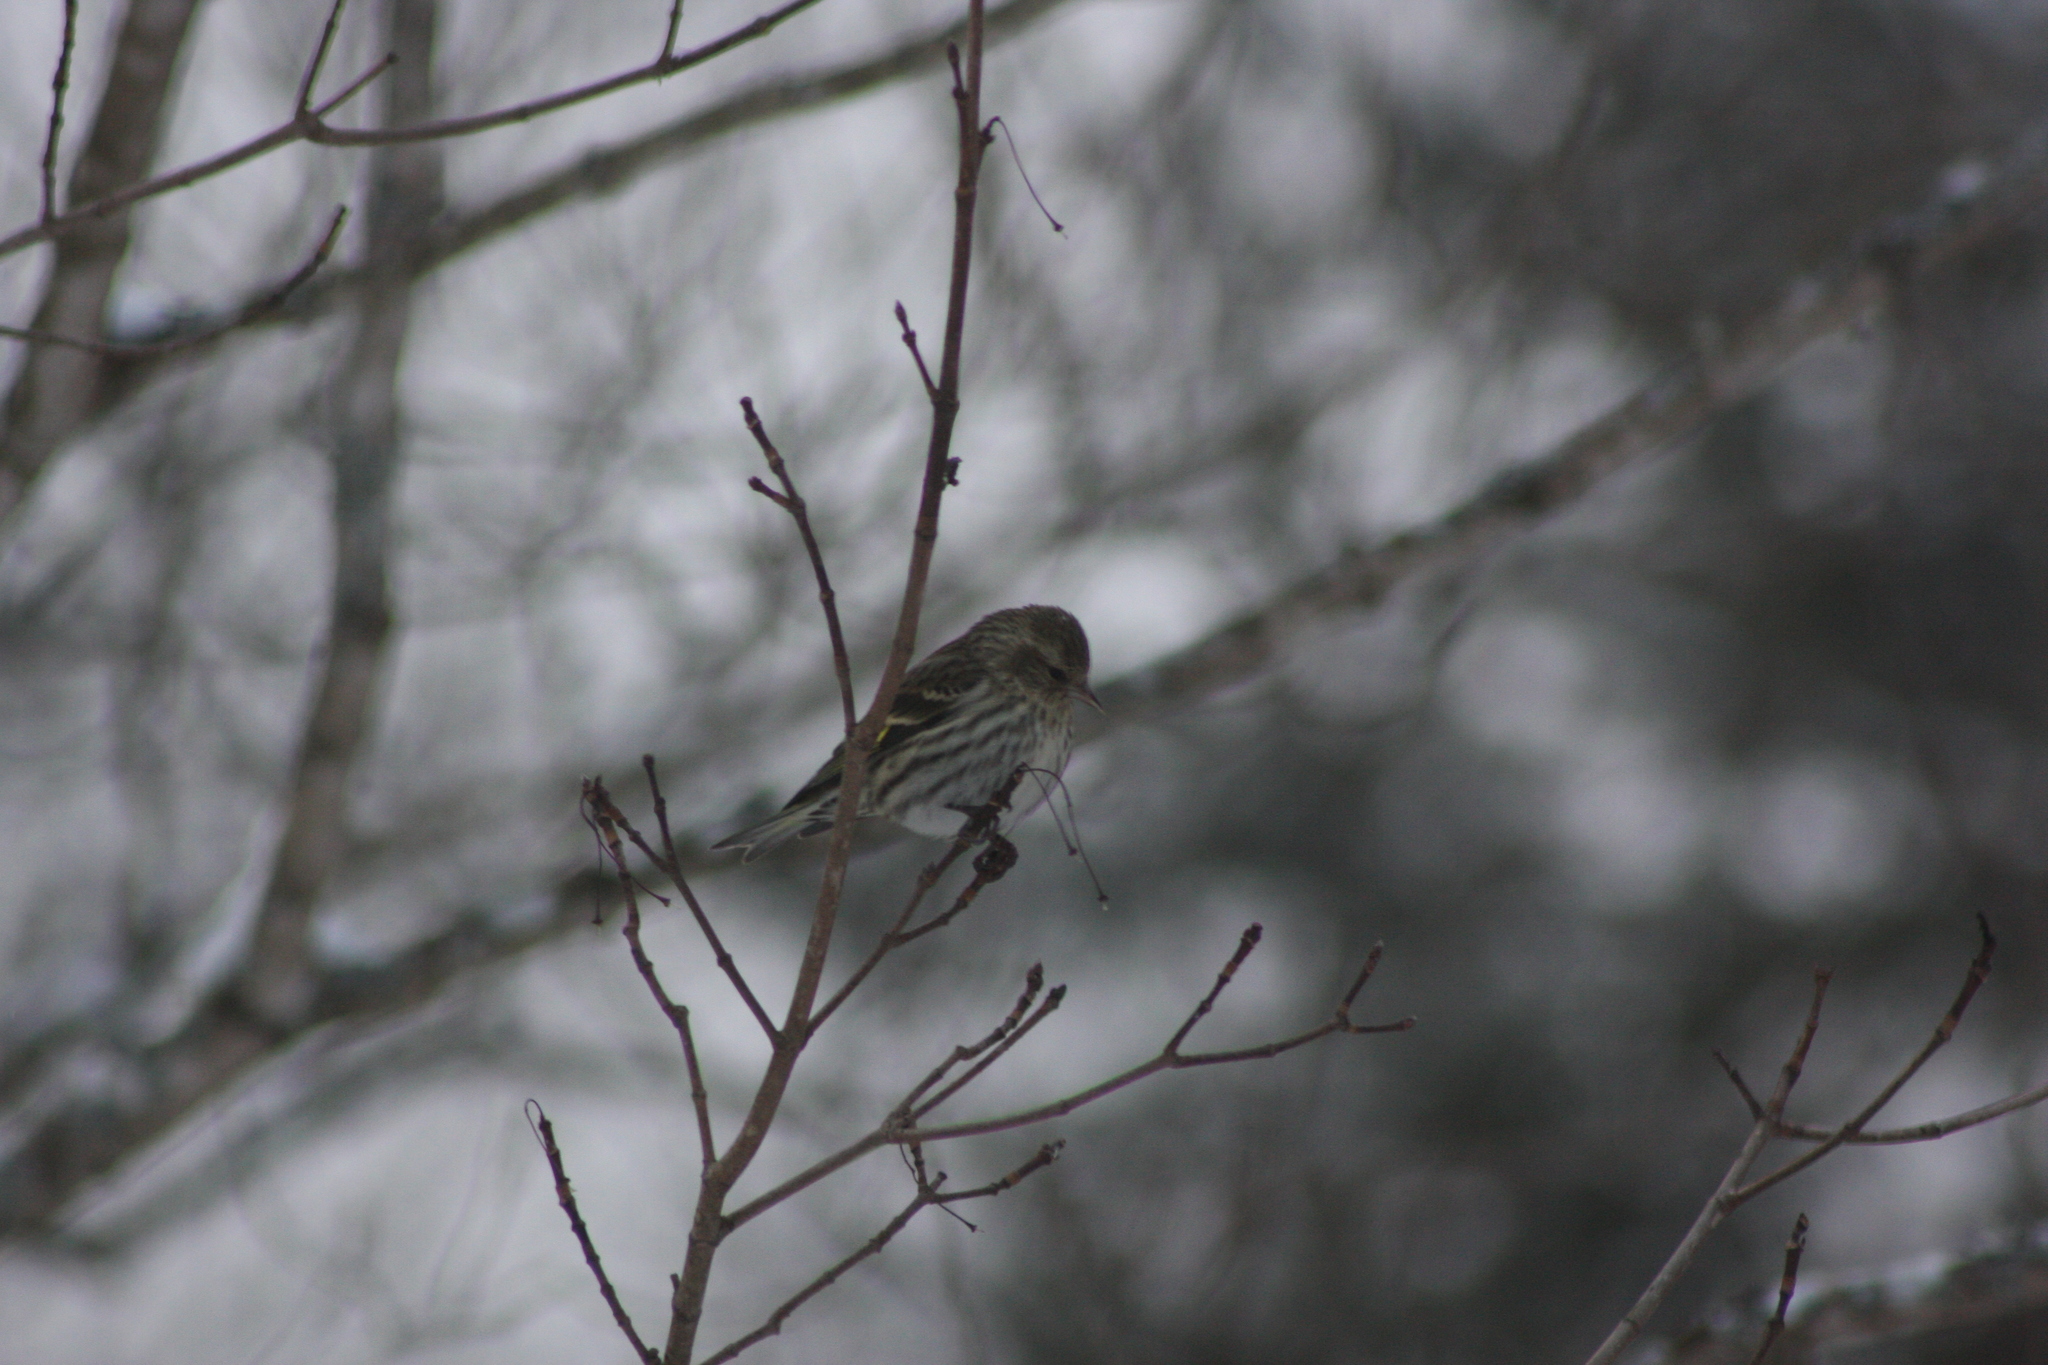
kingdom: Animalia
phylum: Chordata
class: Aves
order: Passeriformes
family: Fringillidae
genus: Spinus
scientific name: Spinus pinus
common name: Pine siskin
